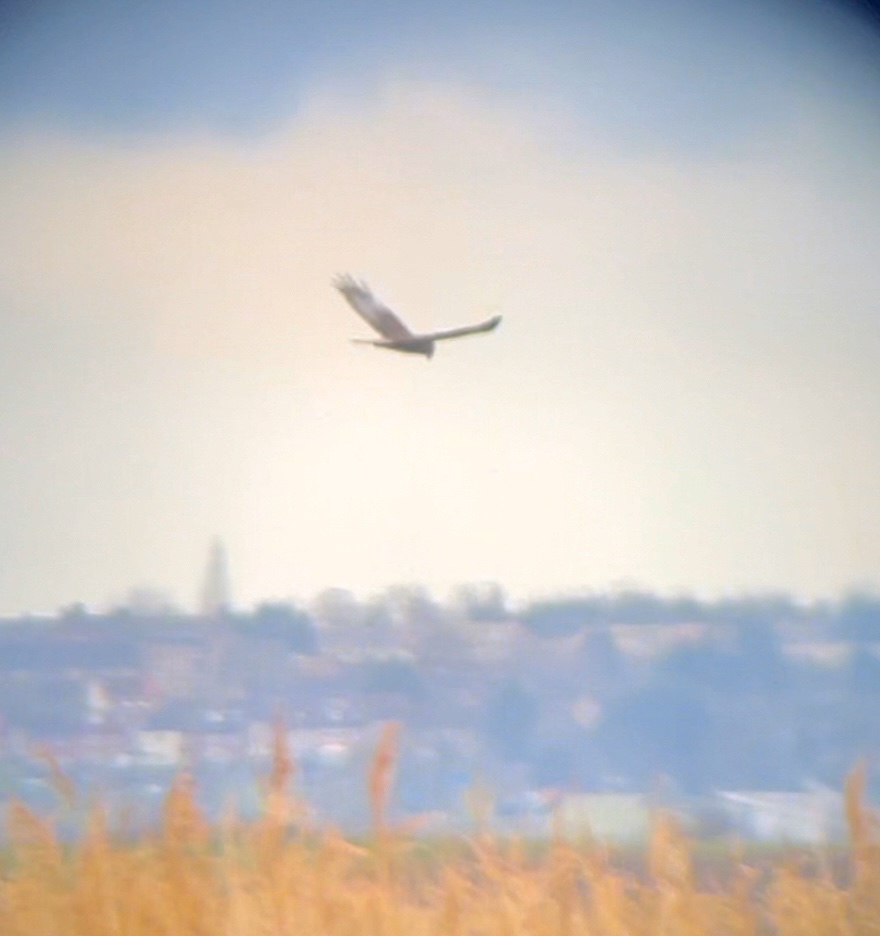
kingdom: Animalia
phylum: Chordata
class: Aves
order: Accipitriformes
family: Accipitridae
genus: Circus
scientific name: Circus aeruginosus
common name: Western marsh harrier
